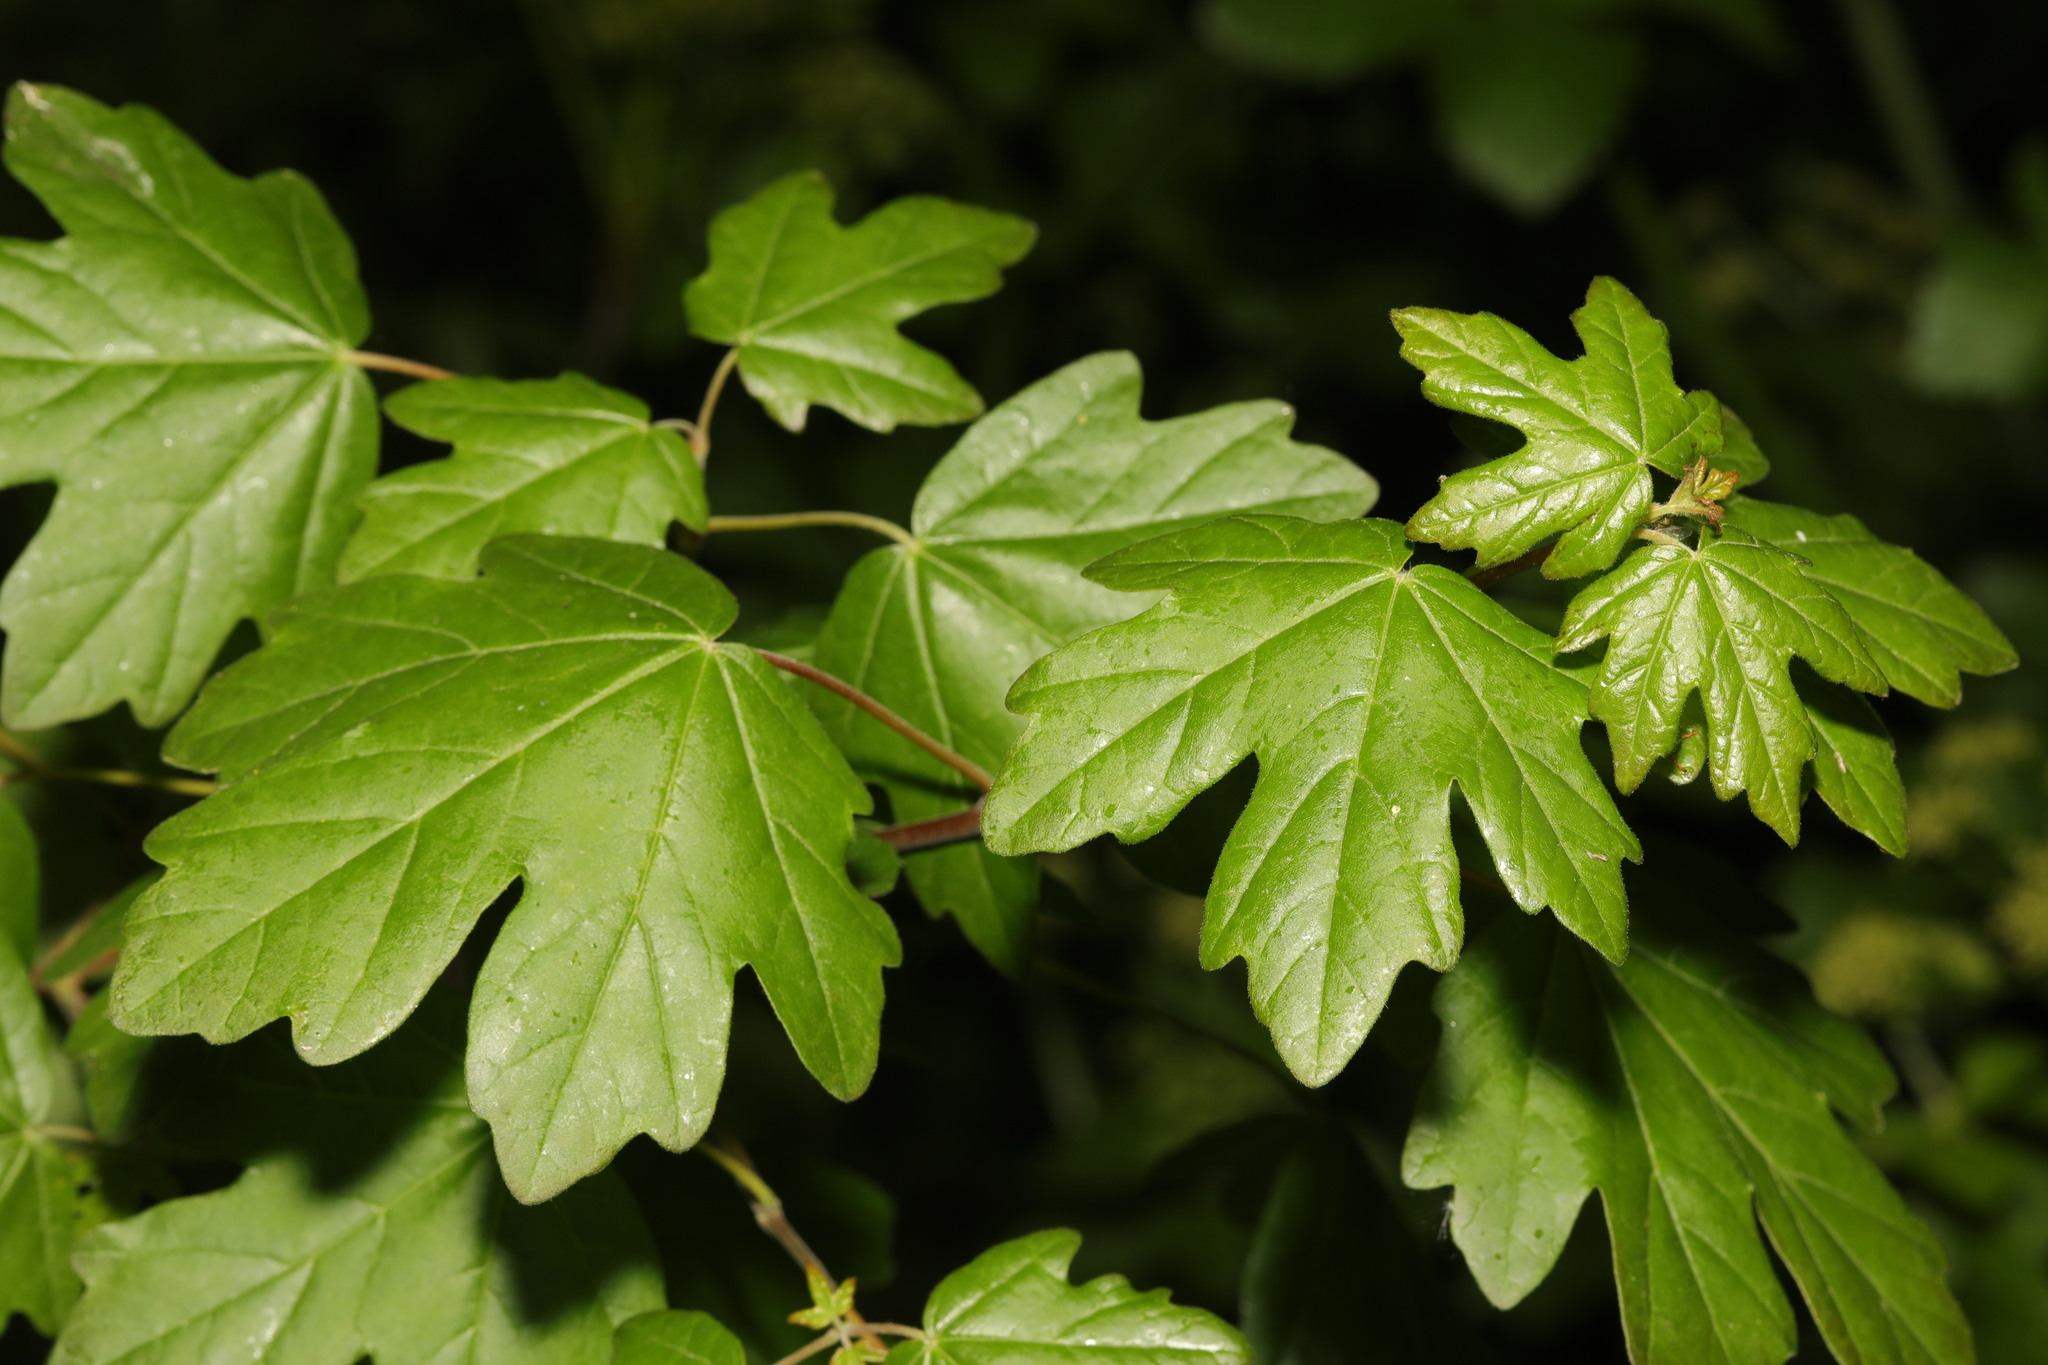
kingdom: Plantae
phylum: Tracheophyta
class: Magnoliopsida
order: Sapindales
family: Sapindaceae
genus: Acer
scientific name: Acer campestre
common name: Field maple
